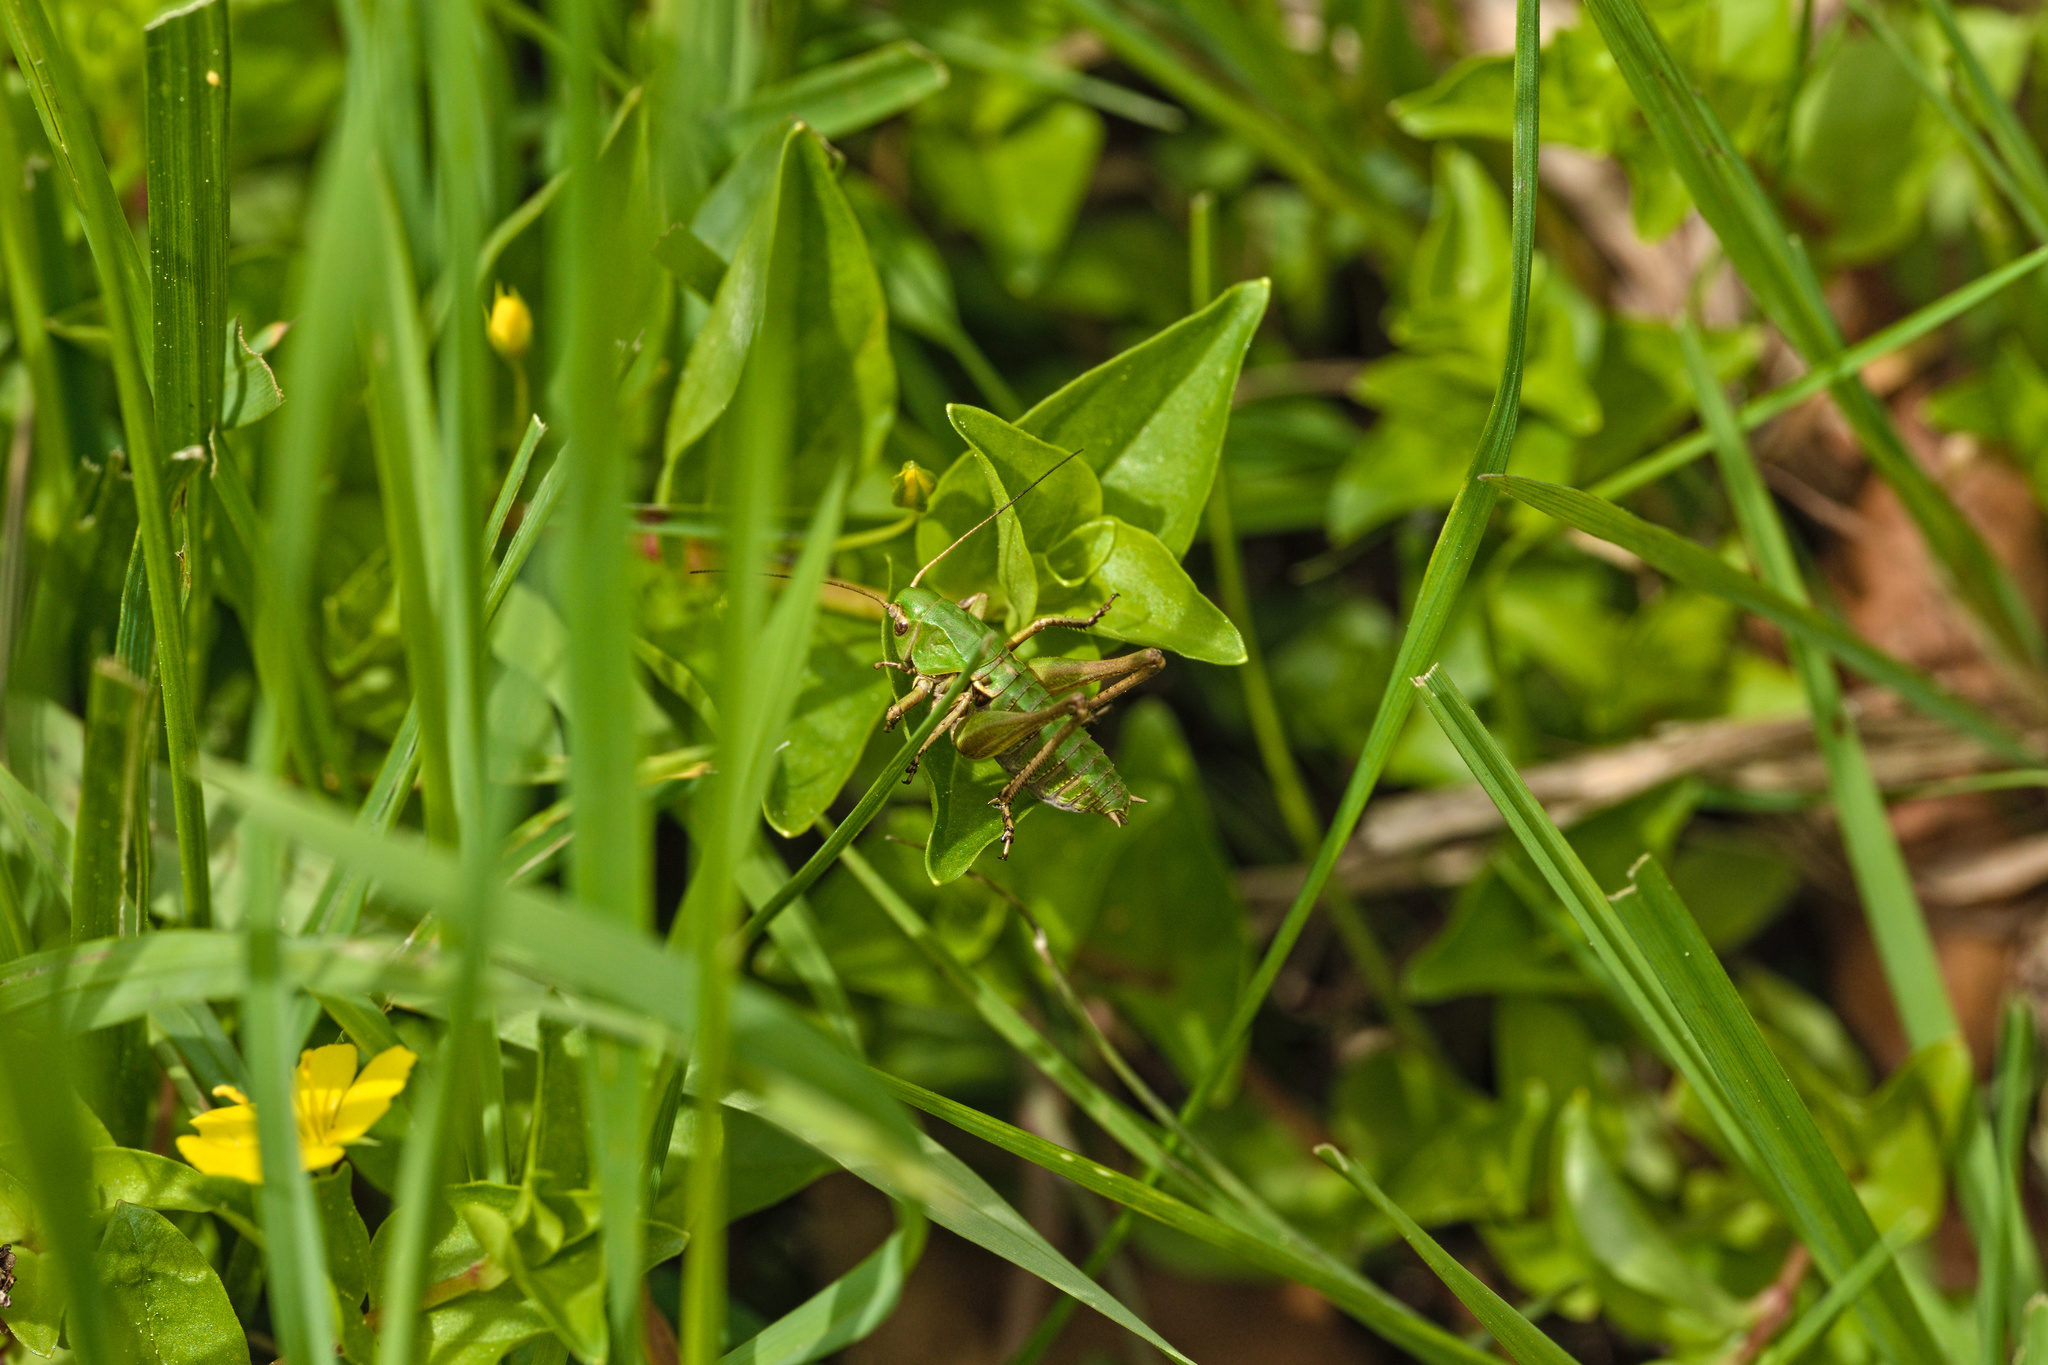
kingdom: Animalia
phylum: Arthropoda
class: Insecta
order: Orthoptera
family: Tettigoniidae
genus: Decticus
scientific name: Decticus verrucivorus
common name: Wart-biter
